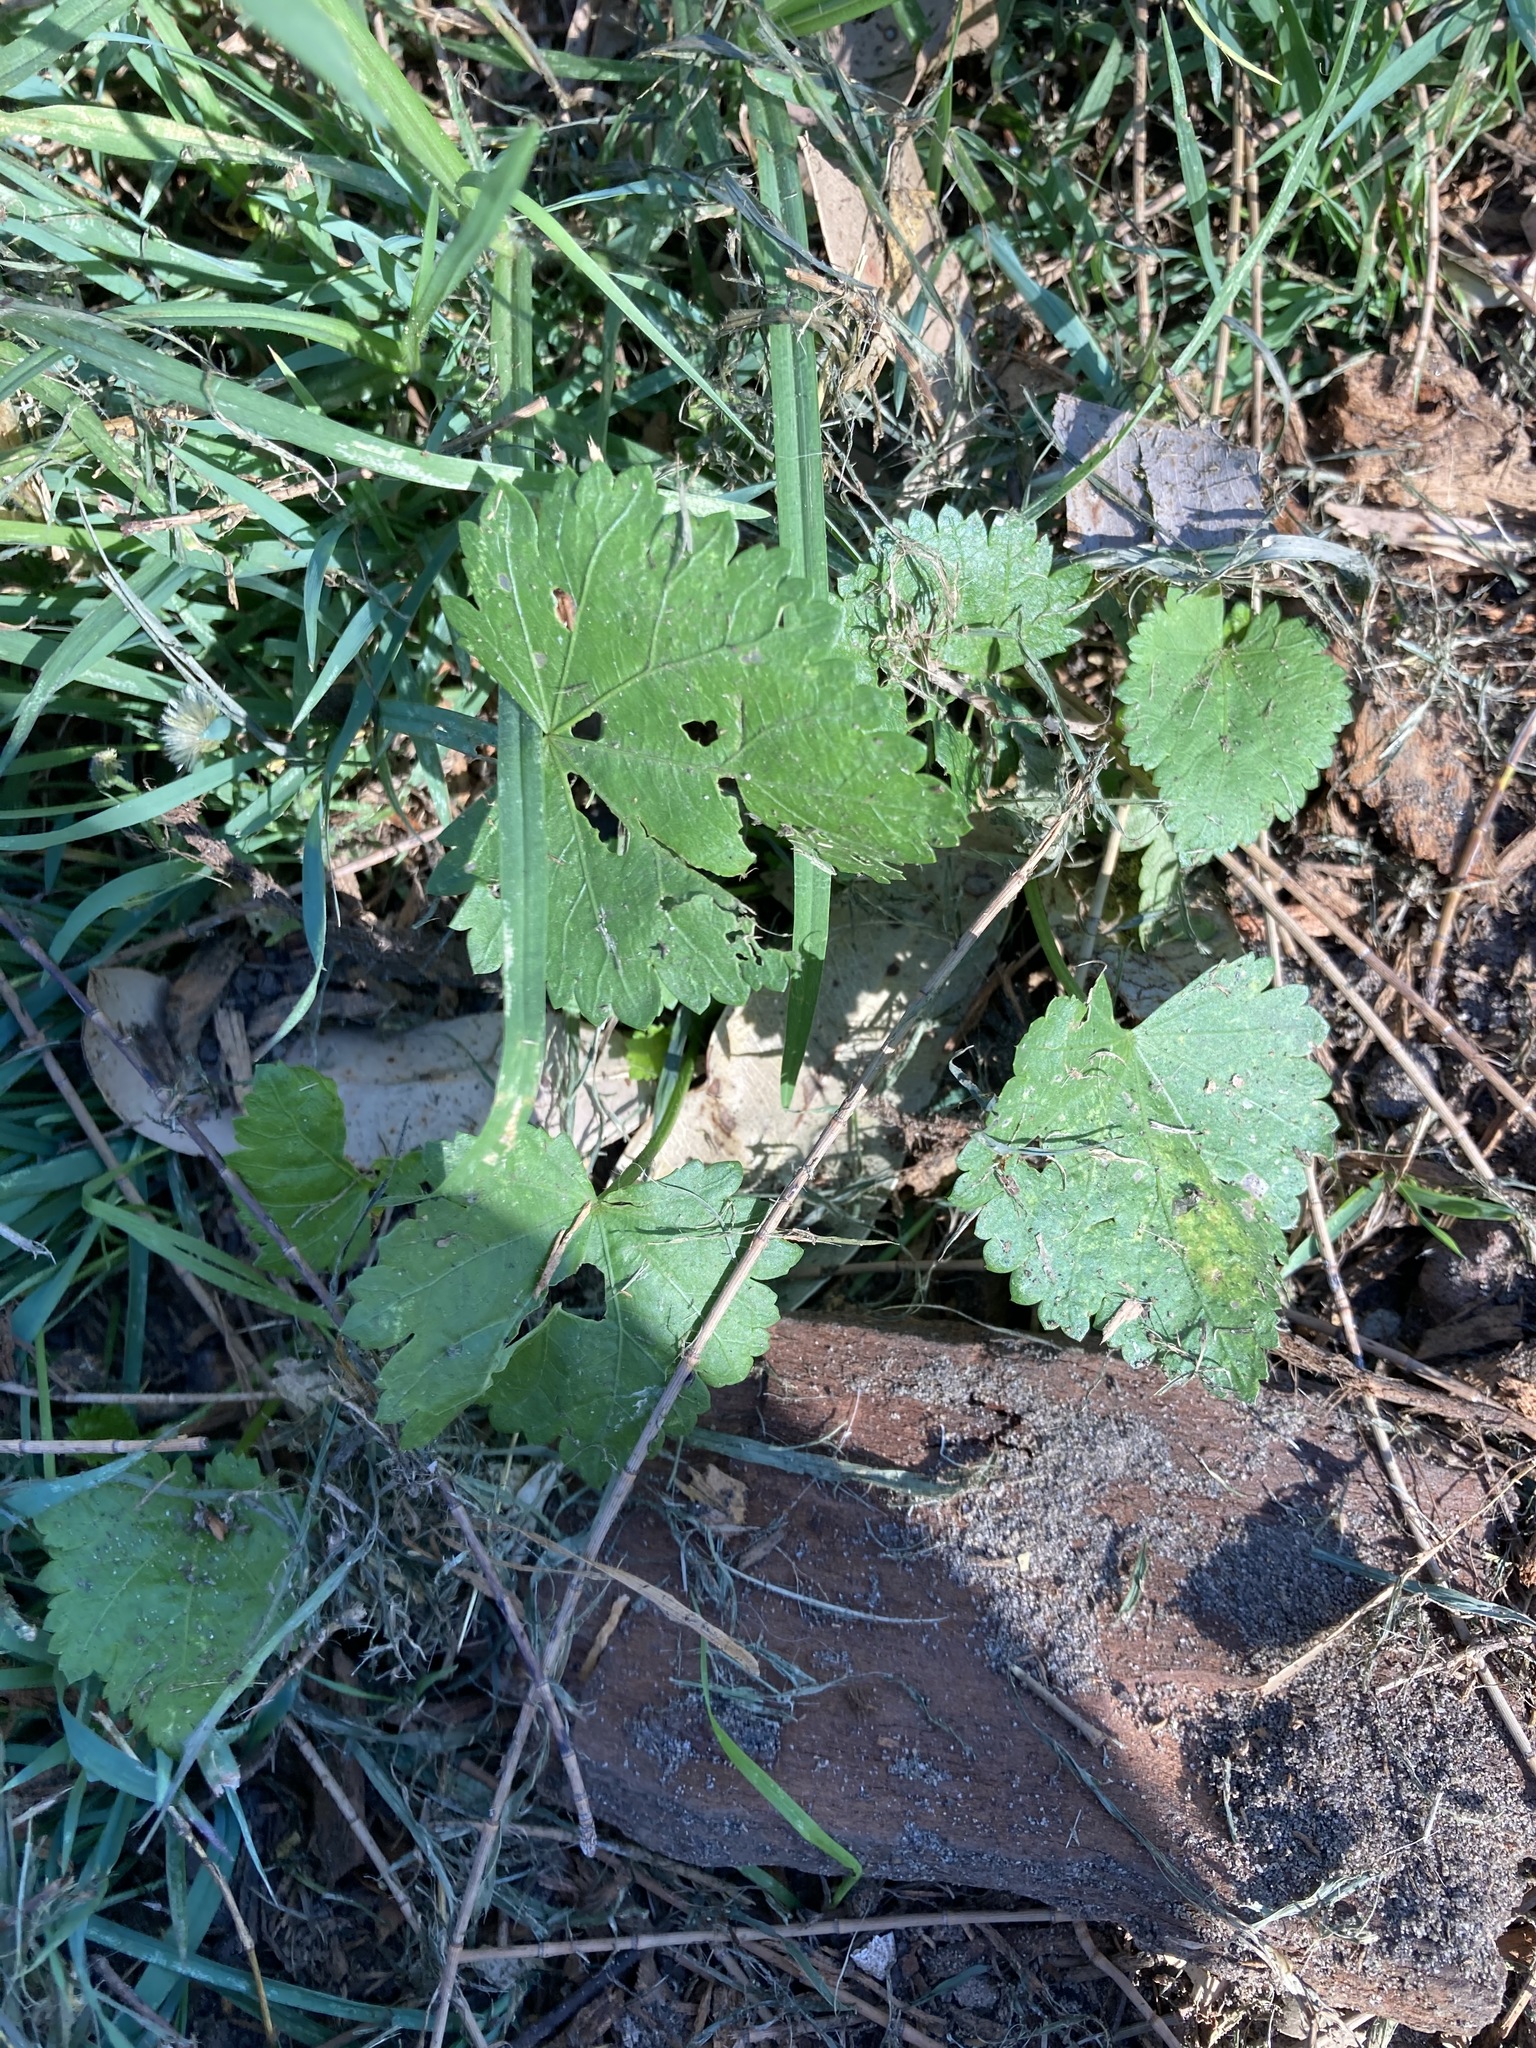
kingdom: Plantae
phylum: Tracheophyta
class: Magnoliopsida
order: Malvales
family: Malvaceae
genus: Modiola
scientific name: Modiola caroliniana
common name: Carolina bristlemallow
